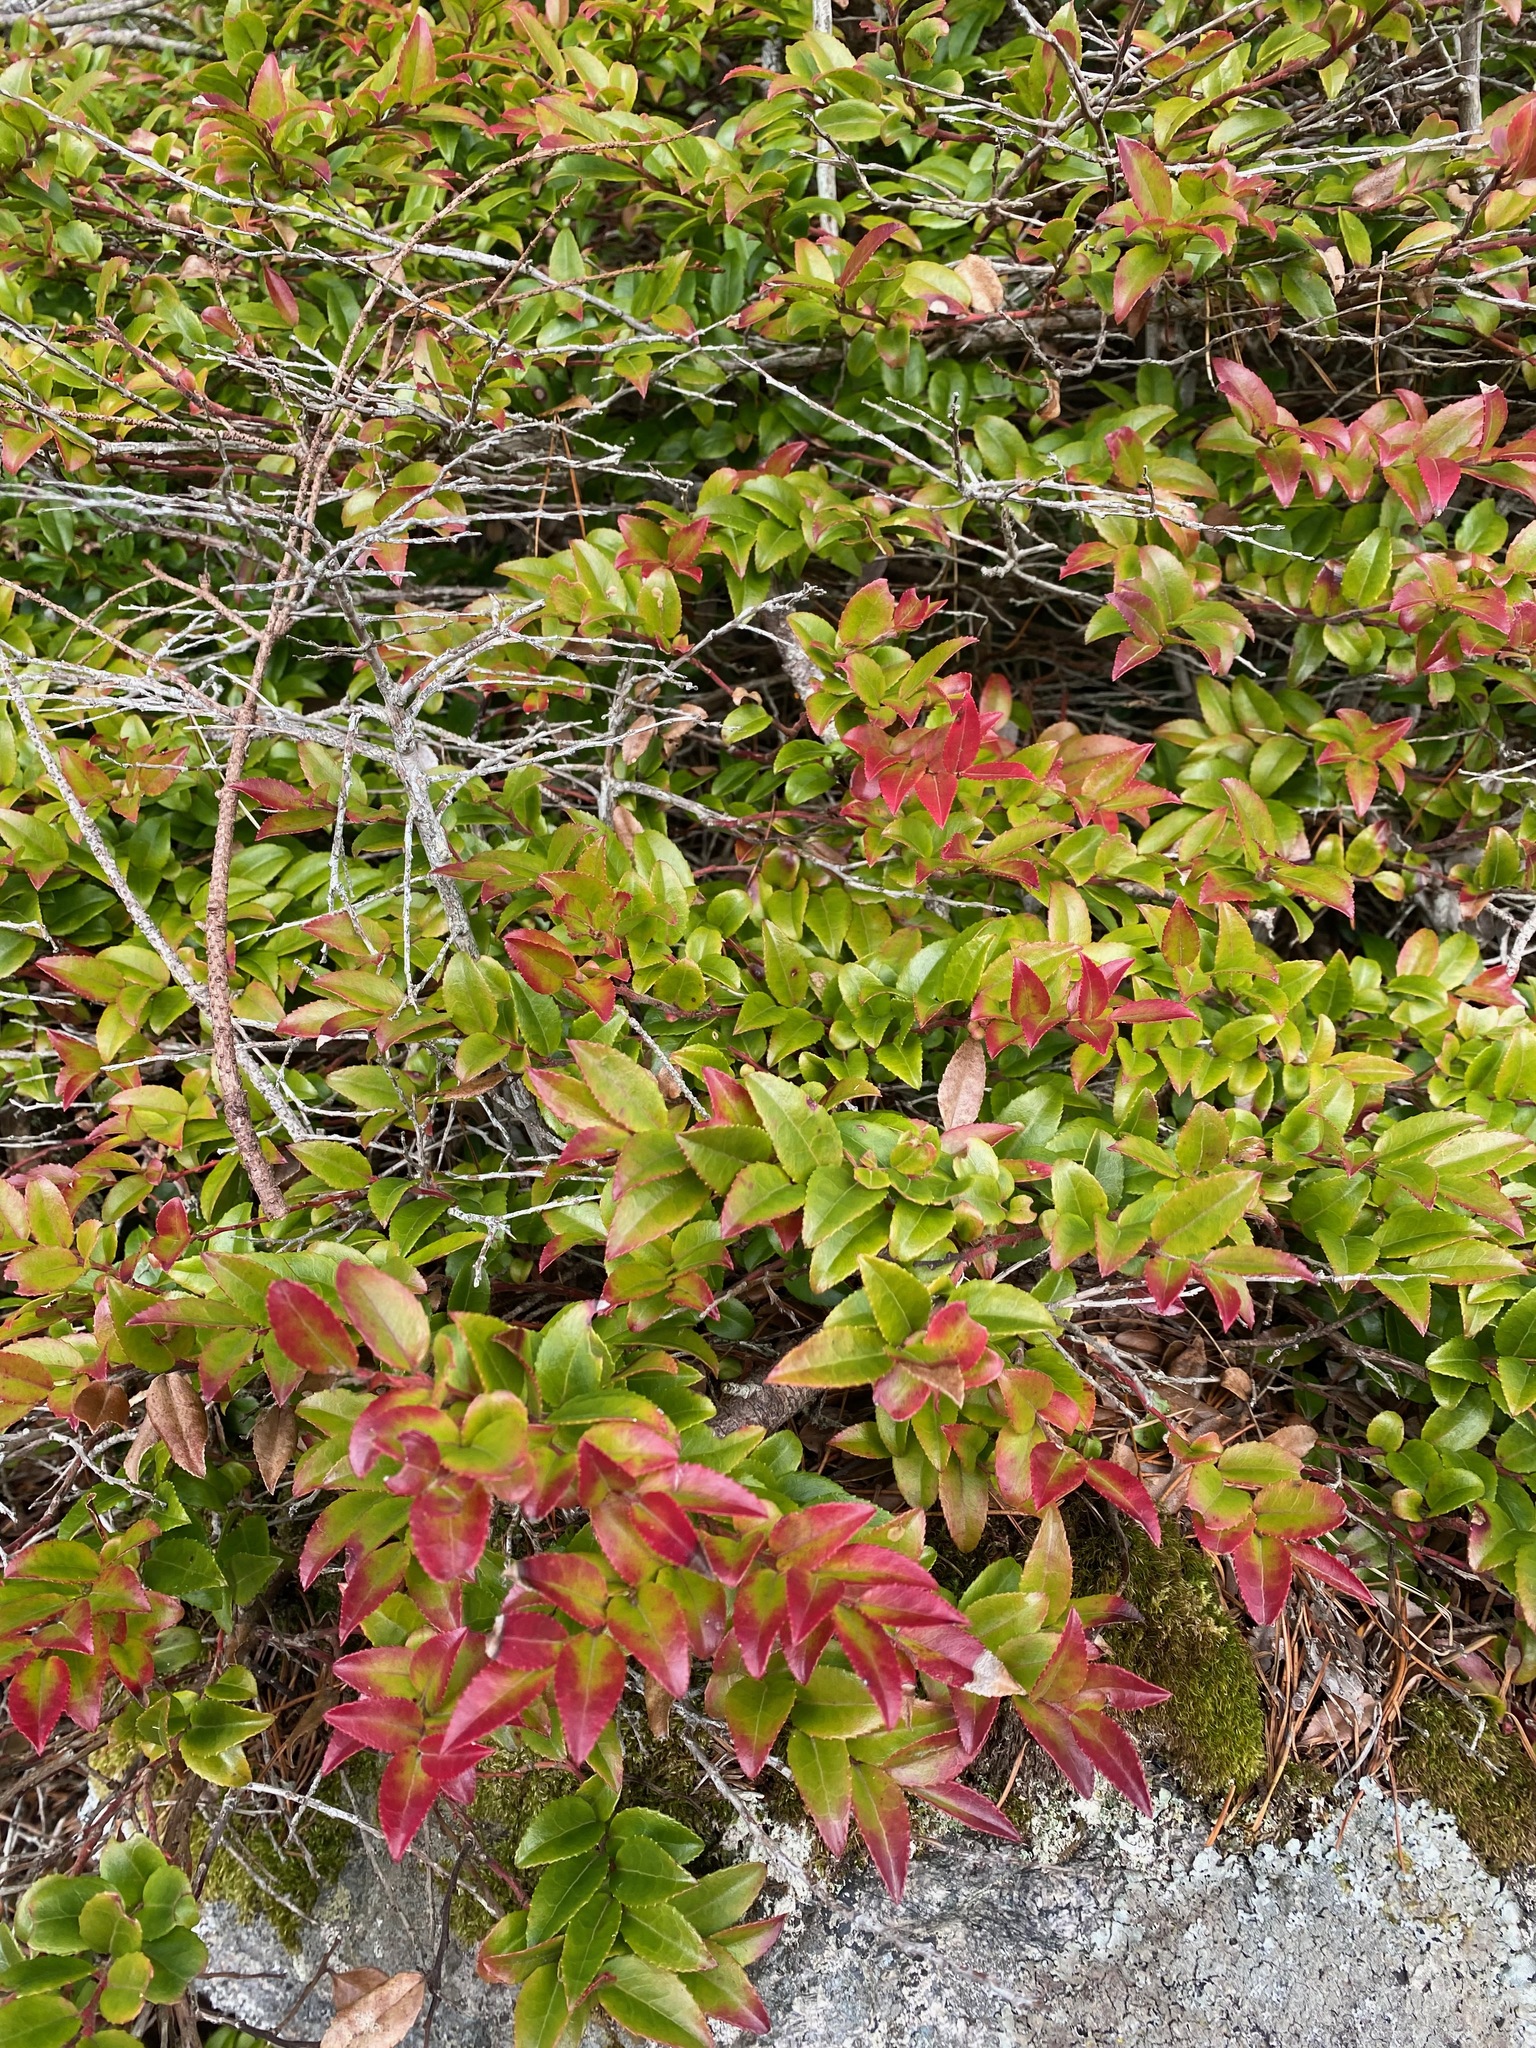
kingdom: Plantae
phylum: Tracheophyta
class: Magnoliopsida
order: Ericales
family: Ericaceae
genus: Vaccinium
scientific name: Vaccinium ovatum
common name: California-huckleberry
